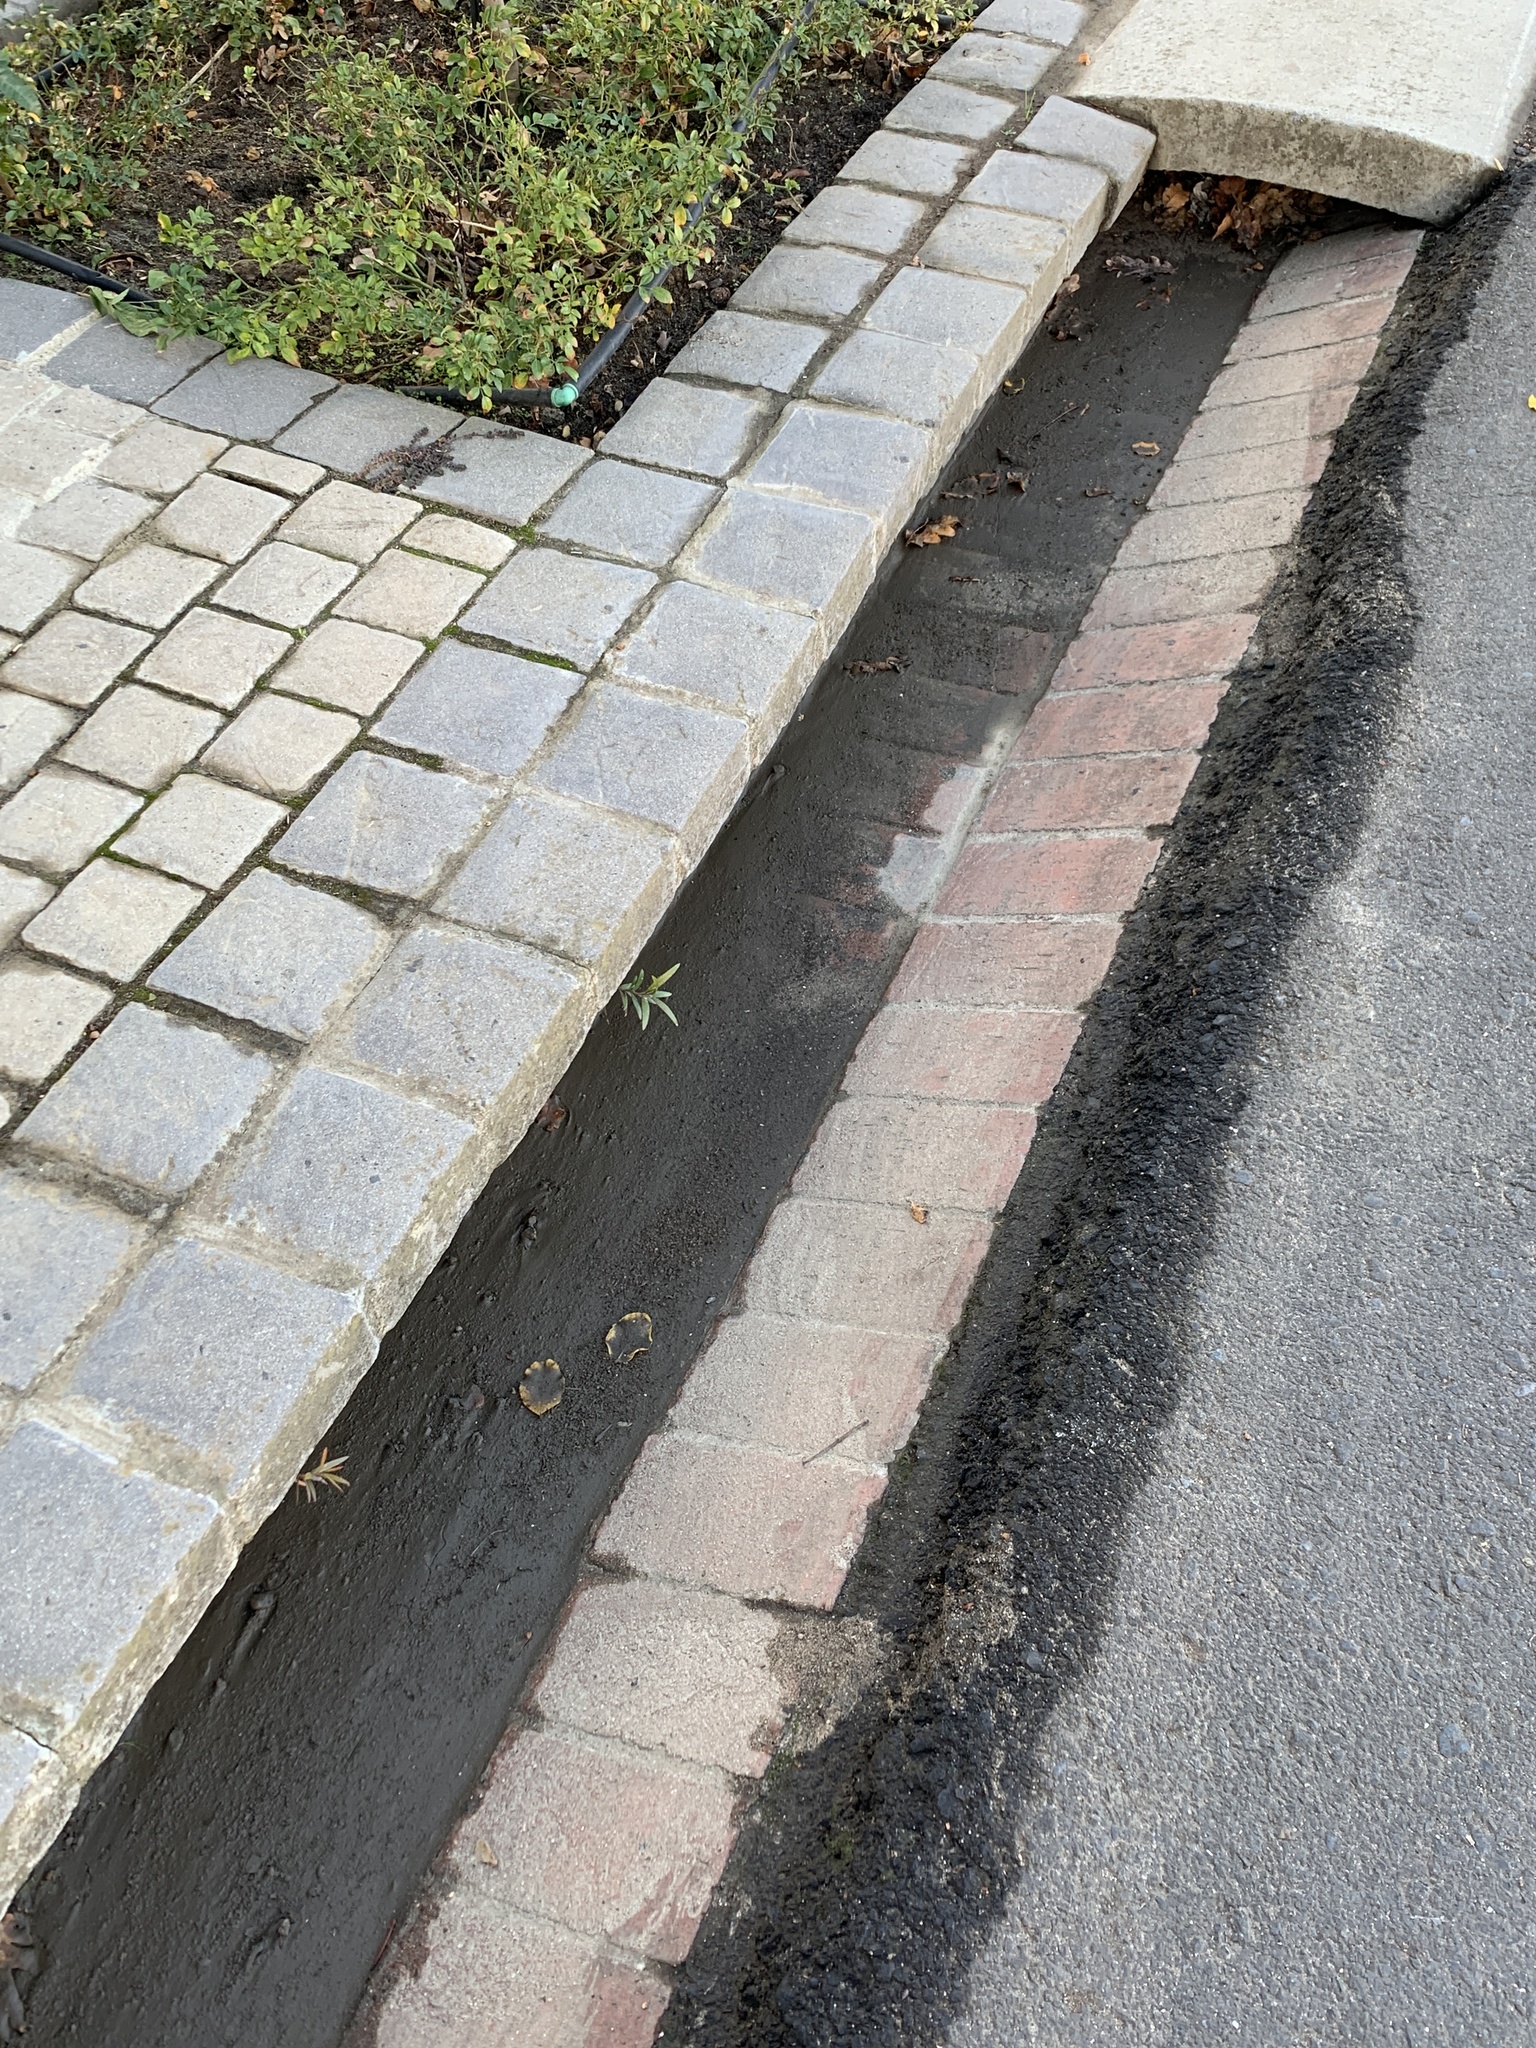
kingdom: Plantae
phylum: Tracheophyta
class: Magnoliopsida
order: Myrtales
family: Myrtaceae
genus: Callistemon
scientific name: Callistemon viminalis
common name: Drooping bottlebrush
